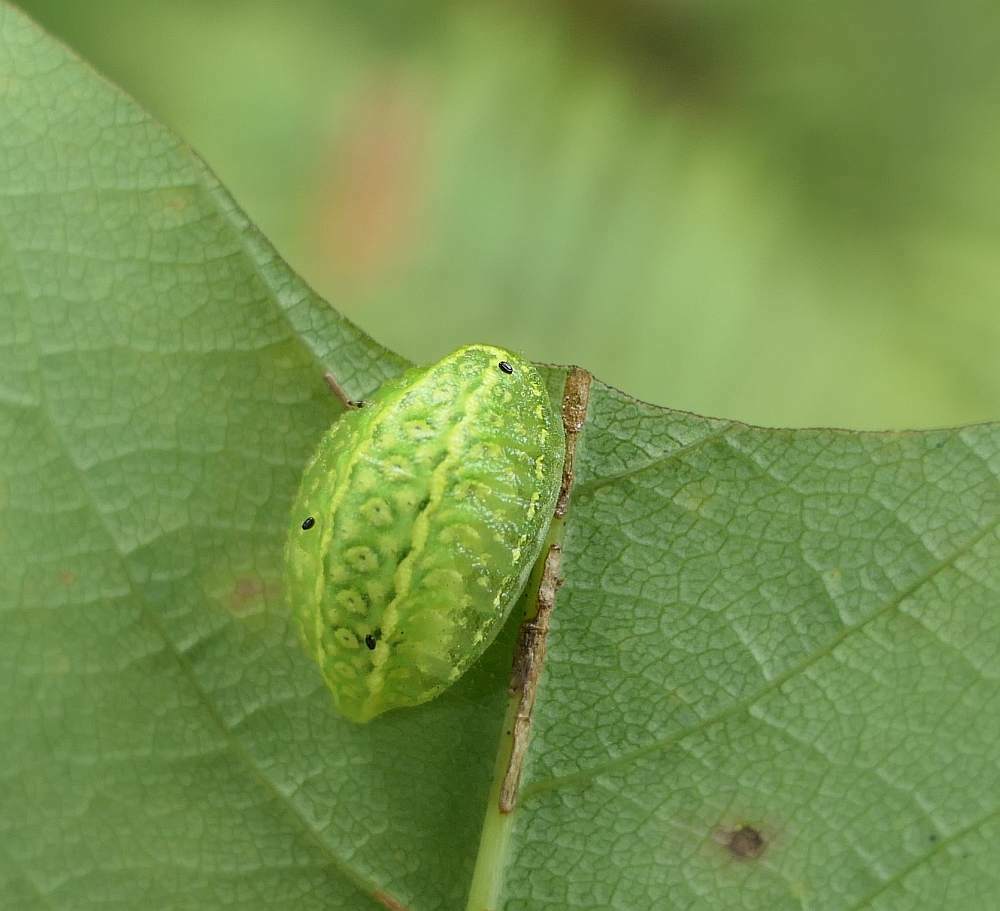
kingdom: Animalia
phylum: Arthropoda
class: Insecta
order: Lepidoptera
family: Limacodidae
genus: Lithacodes
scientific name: Lithacodes fasciola
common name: Yellow-shouldered slug moth
